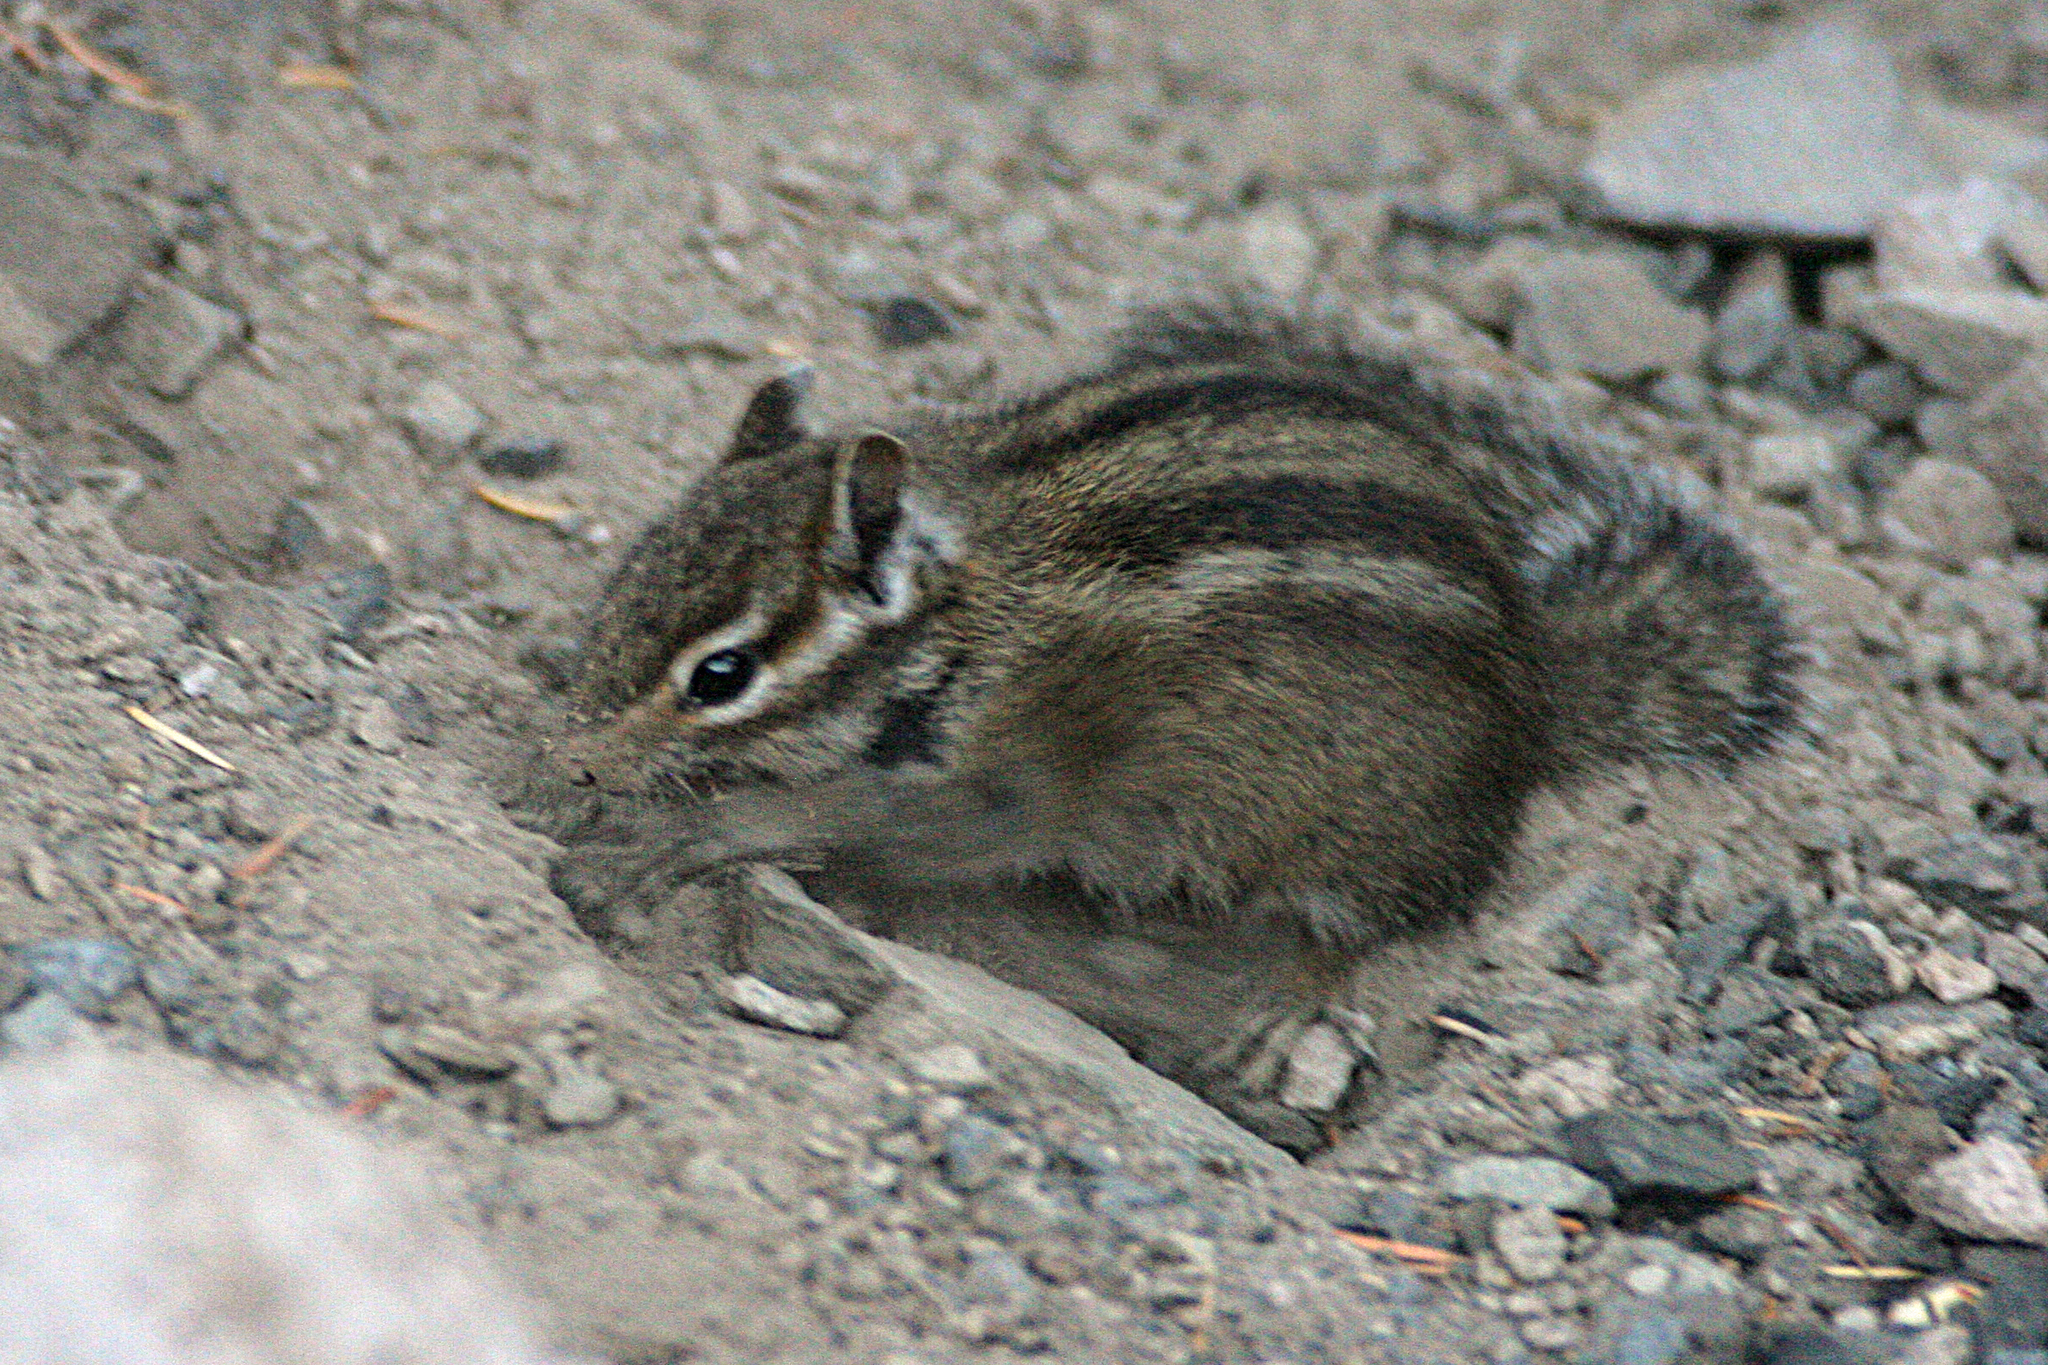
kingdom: Animalia
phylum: Chordata
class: Mammalia
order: Rodentia
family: Sciuridae
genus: Tamias
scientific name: Tamias townsendii
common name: Townsend's chipmunk
